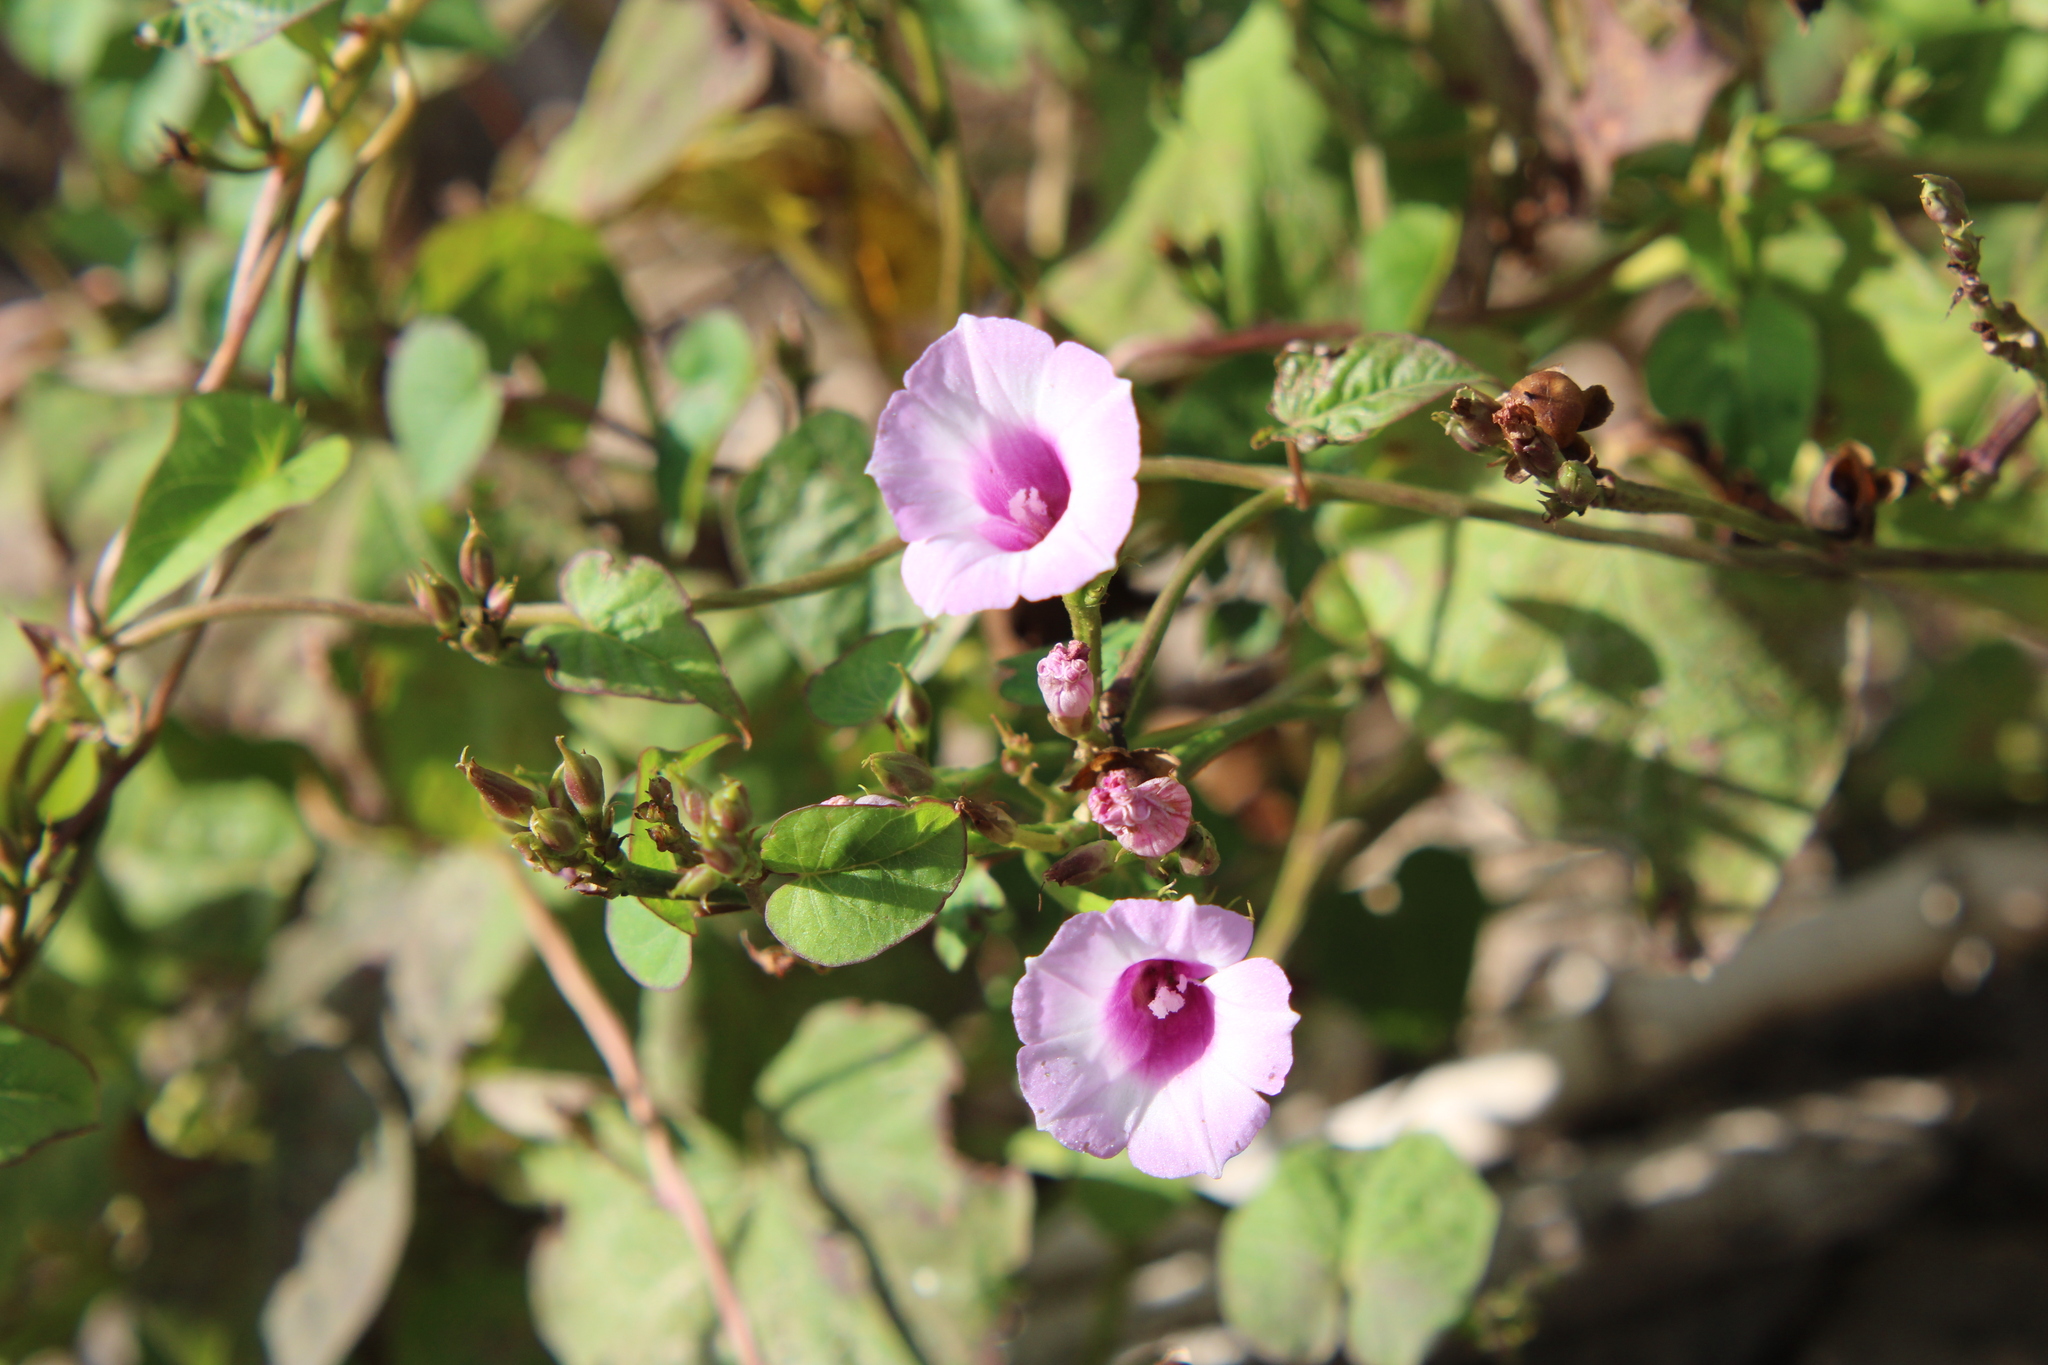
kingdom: Plantae
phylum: Tracheophyta
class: Magnoliopsida
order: Solanales
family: Convolvulaceae
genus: Ipomoea
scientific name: Ipomoea grandifolia
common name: Aiea morning glory
